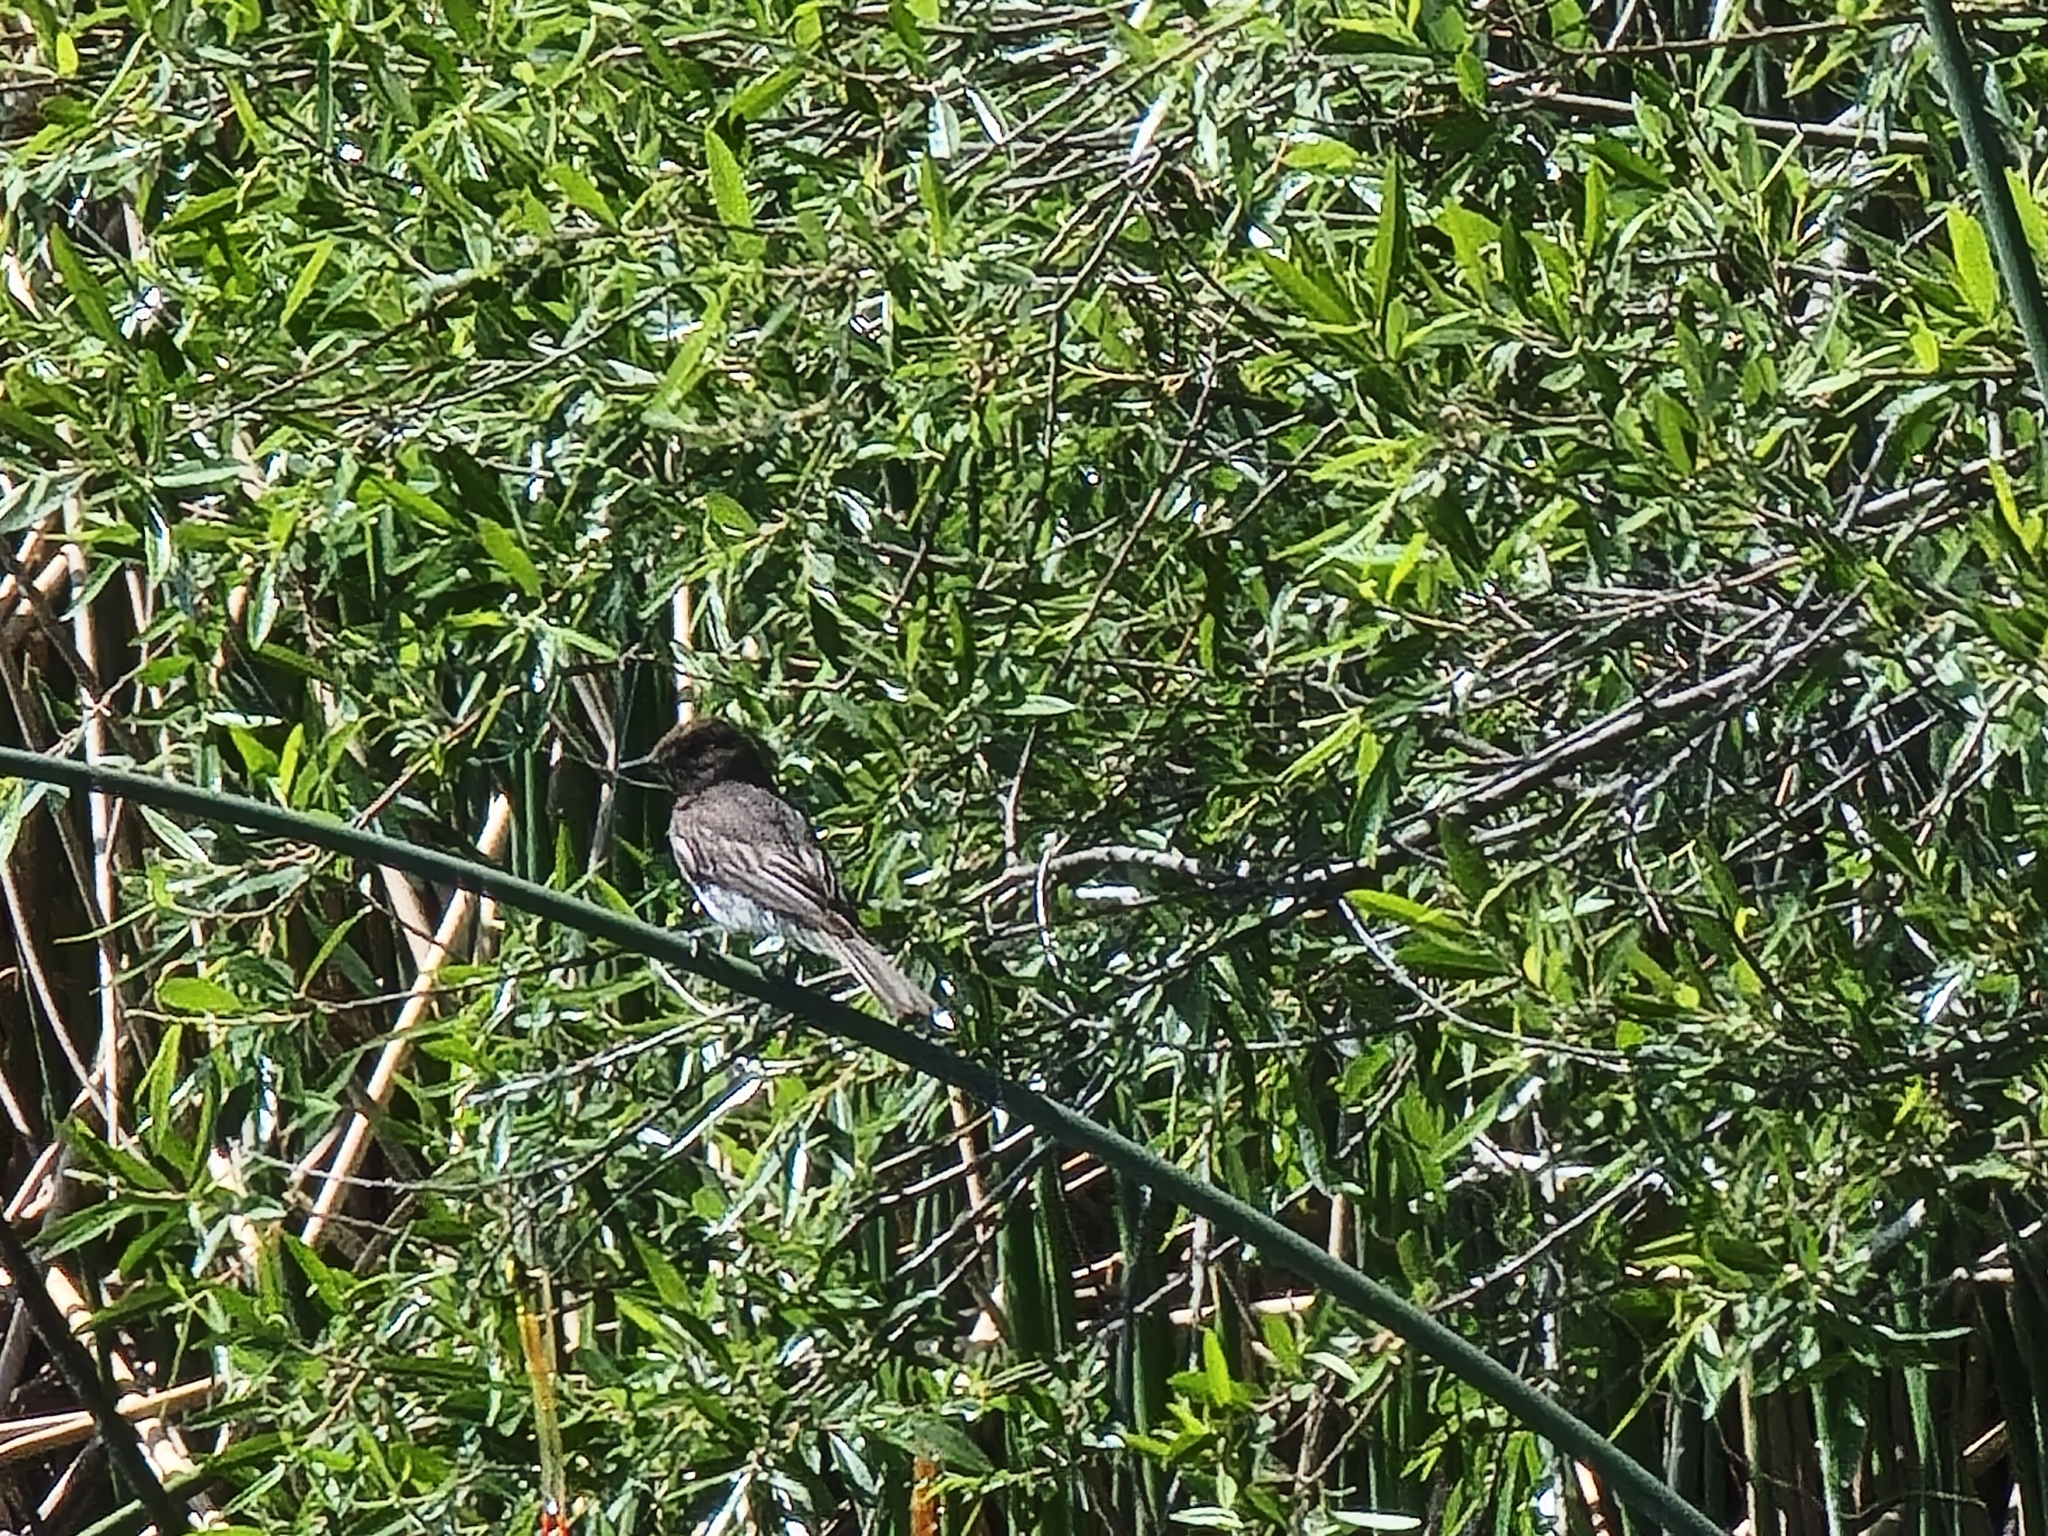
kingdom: Animalia
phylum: Chordata
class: Aves
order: Passeriformes
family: Tyrannidae
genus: Sayornis
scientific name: Sayornis nigricans
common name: Black phoebe
